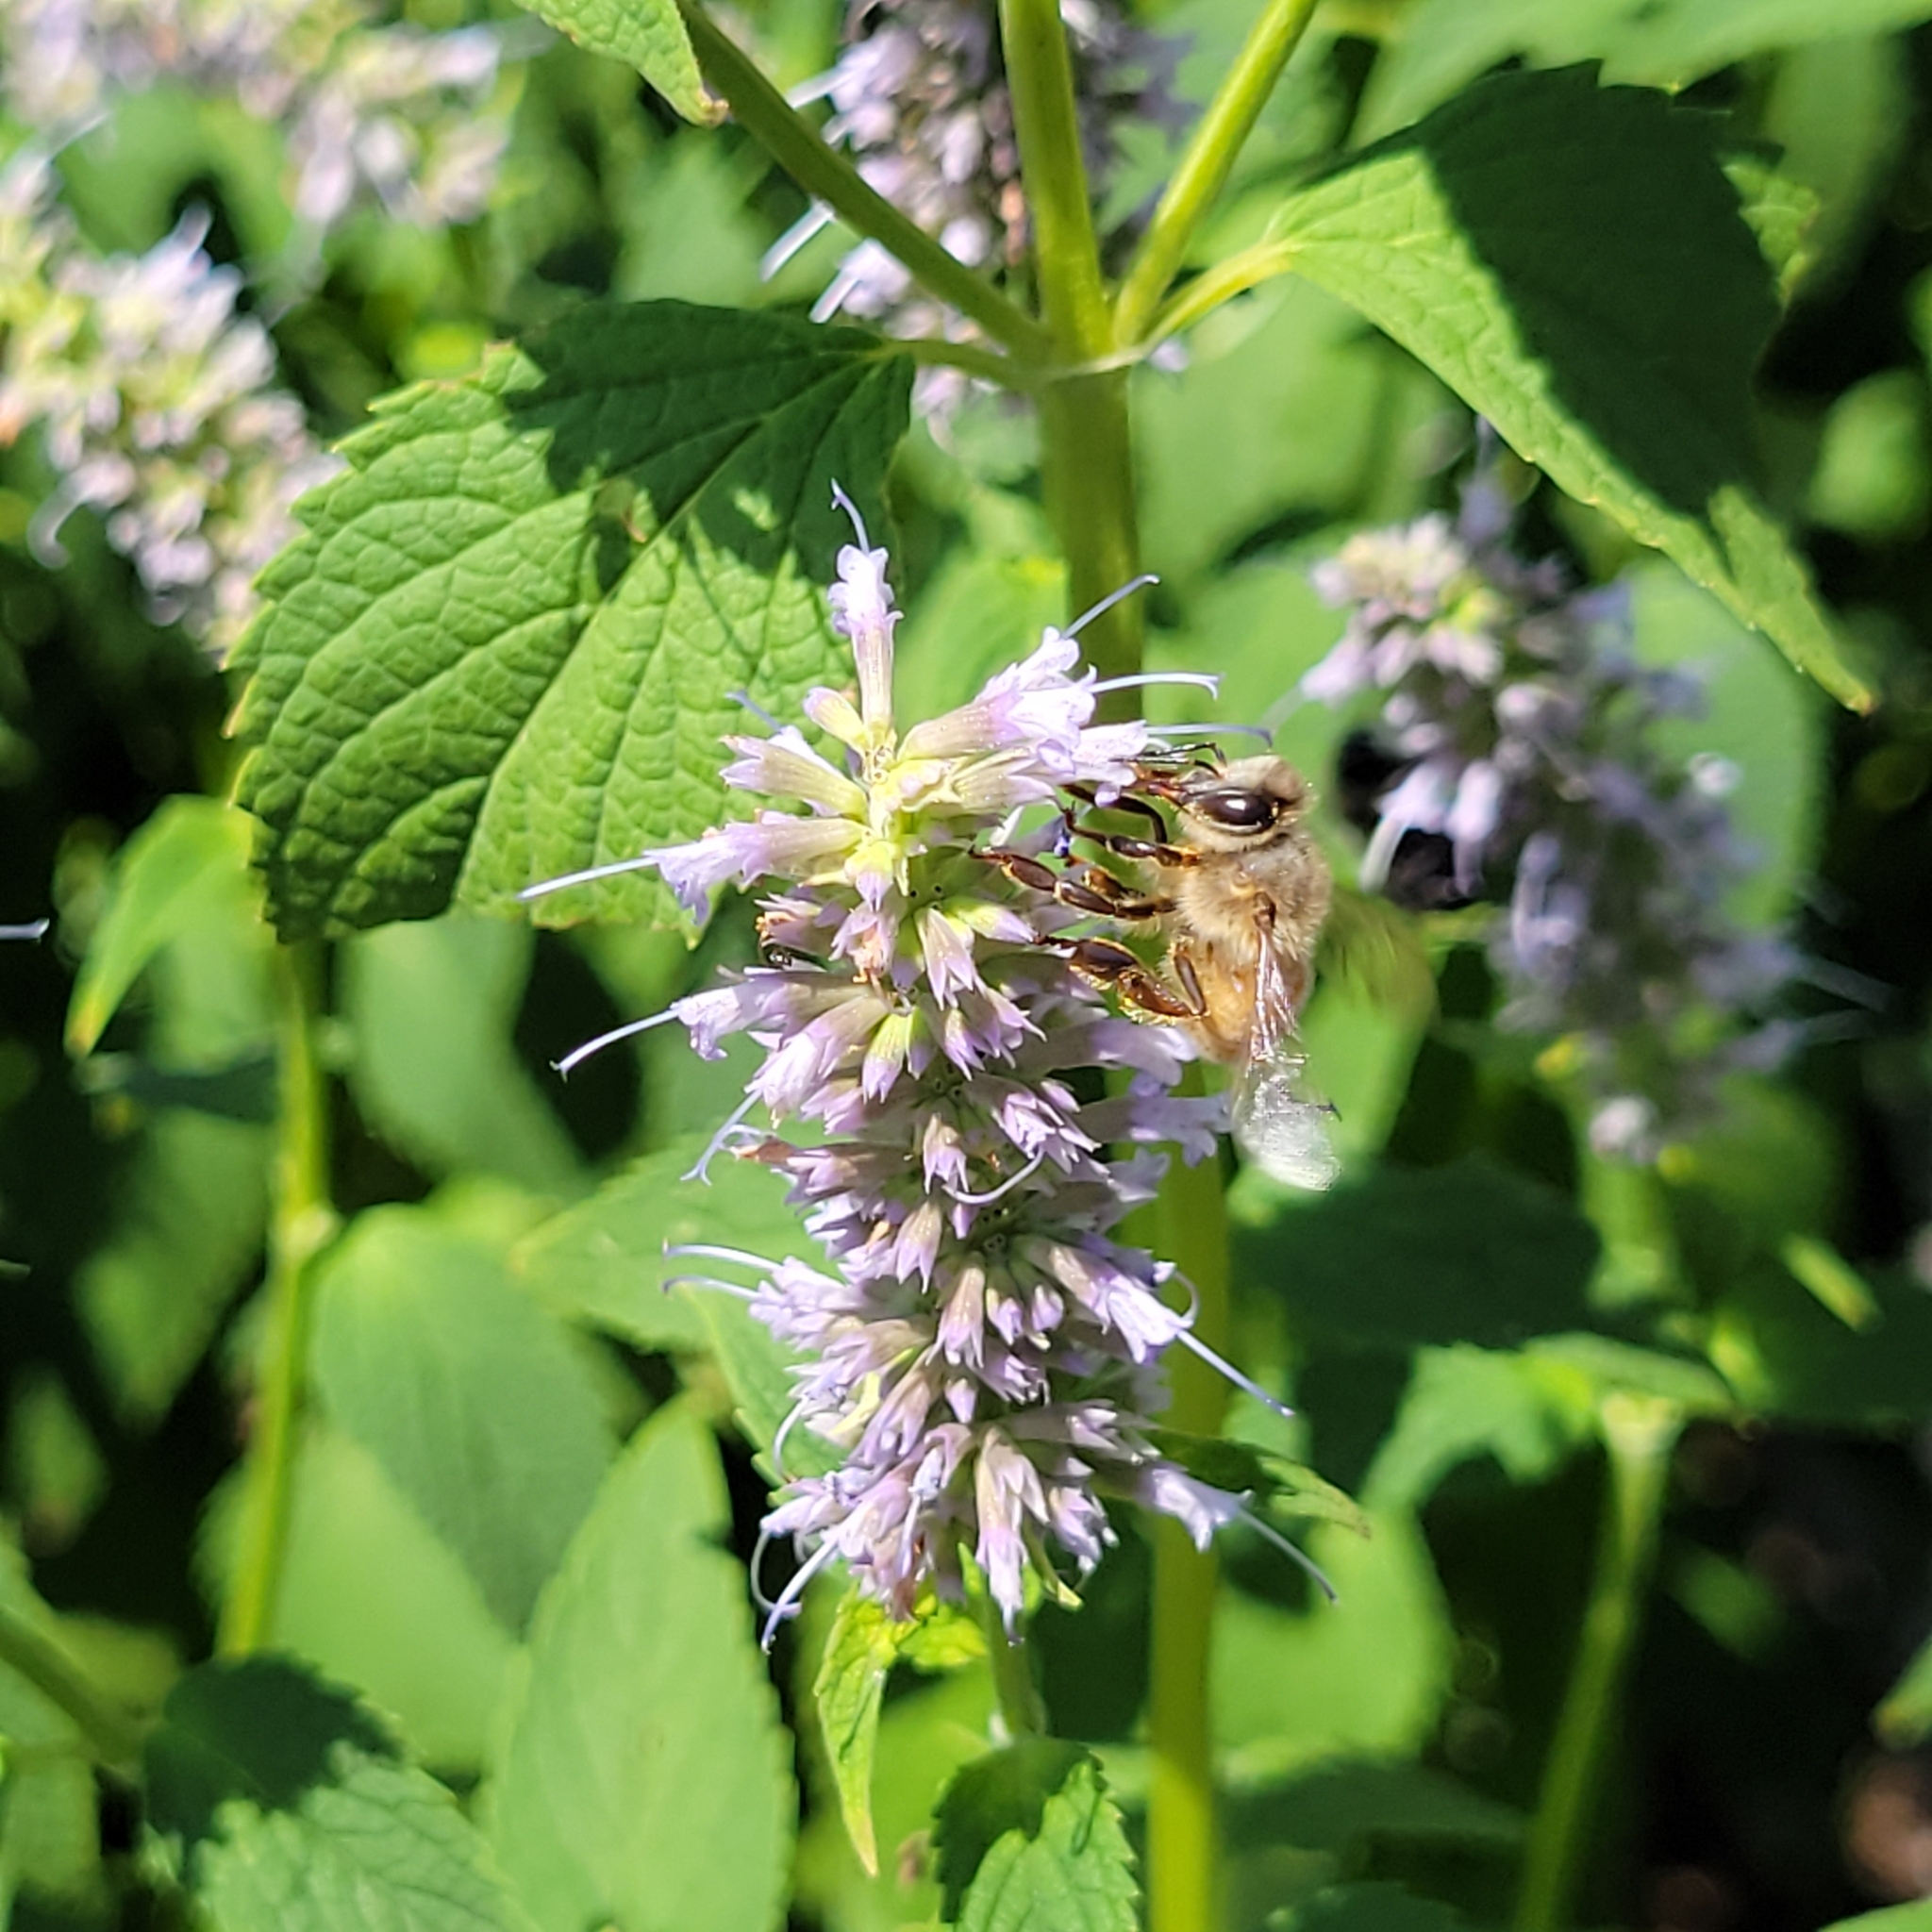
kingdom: Animalia
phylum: Arthropoda
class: Insecta
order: Hymenoptera
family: Apidae
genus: Apis
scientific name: Apis mellifera
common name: Honey bee
